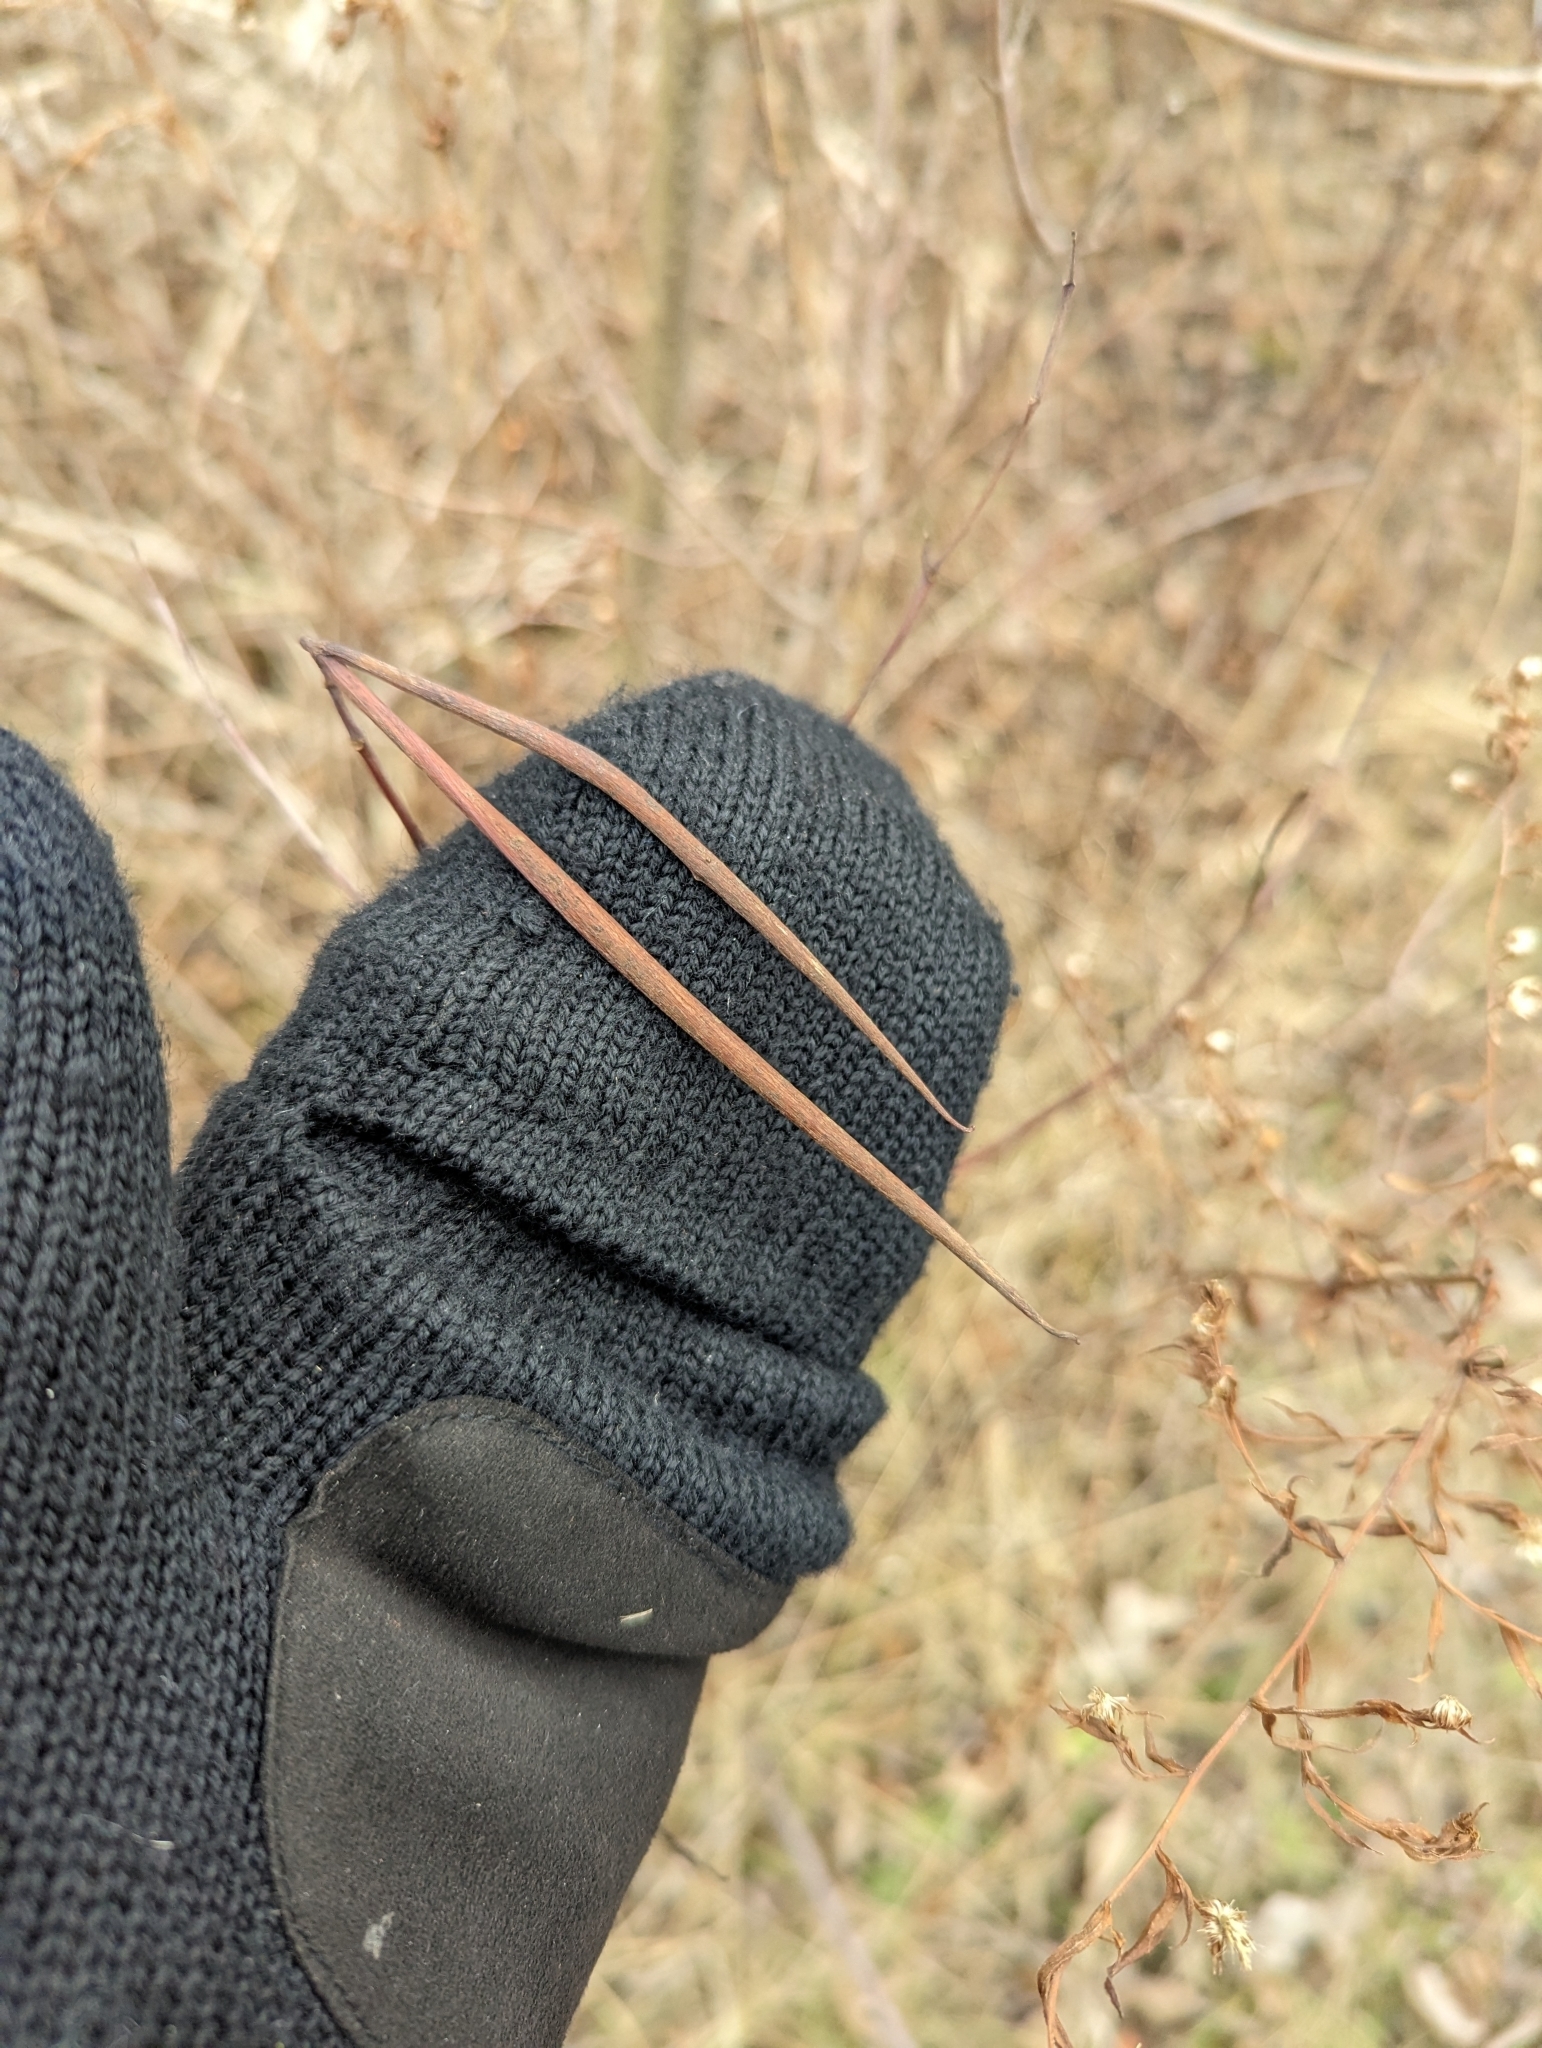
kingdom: Plantae
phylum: Tracheophyta
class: Magnoliopsida
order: Gentianales
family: Apocynaceae
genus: Apocynum
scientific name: Apocynum cannabinum
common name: Hemp dogbane
